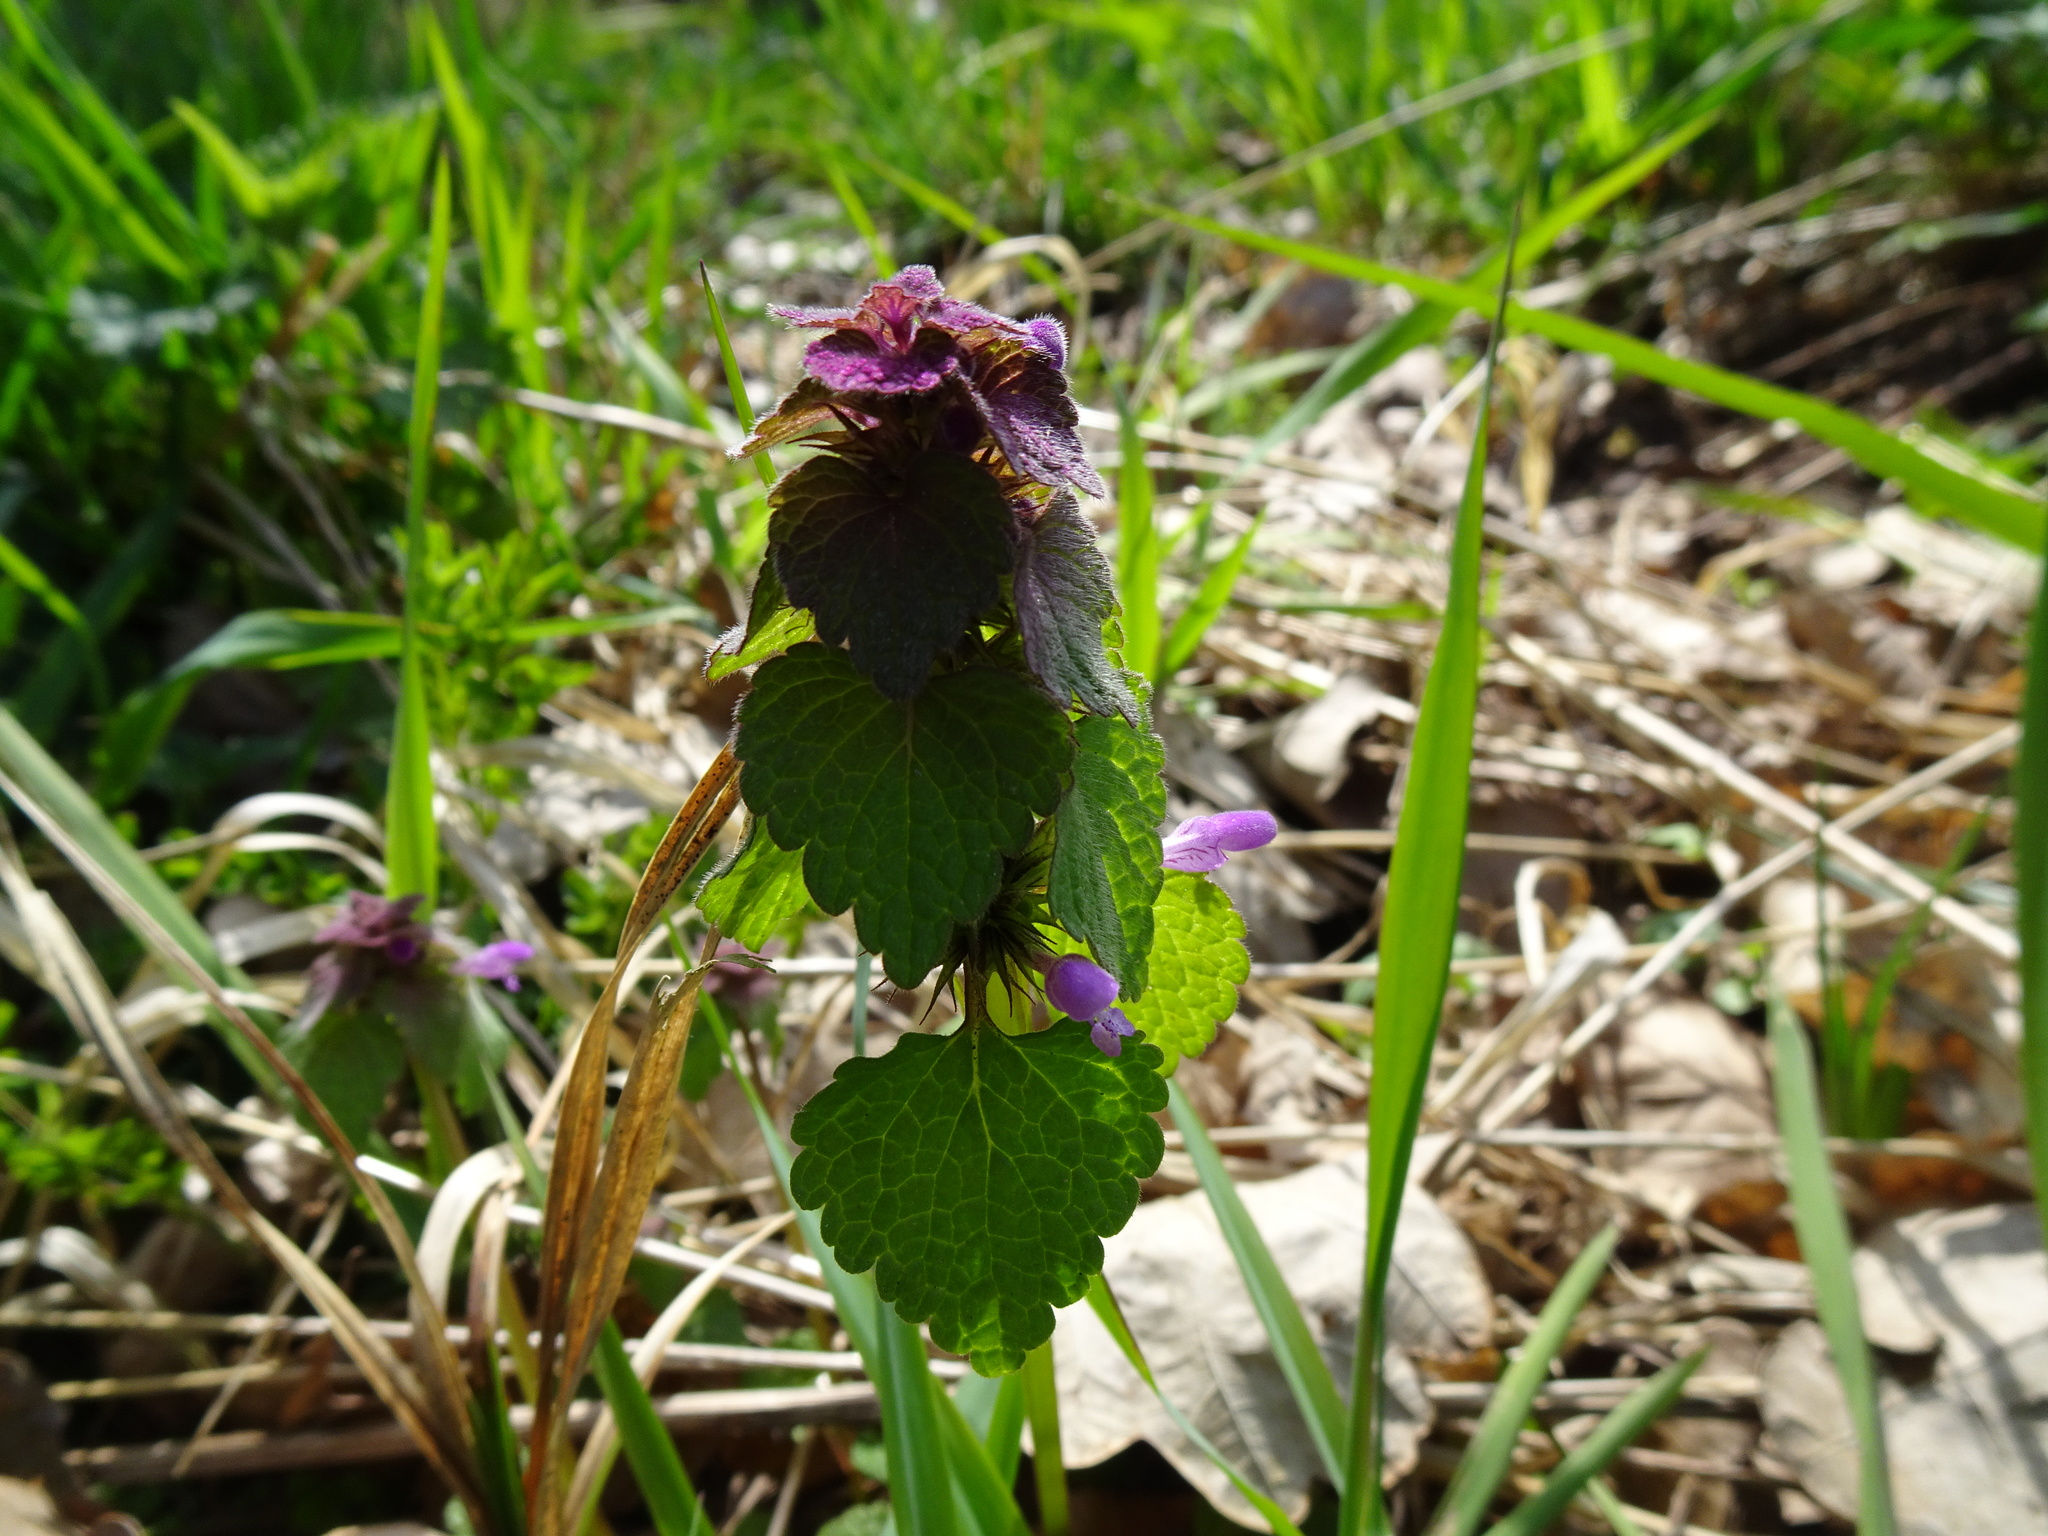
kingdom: Plantae
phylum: Tracheophyta
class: Magnoliopsida
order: Lamiales
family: Lamiaceae
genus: Lamium
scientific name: Lamium purpureum
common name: Red dead-nettle
